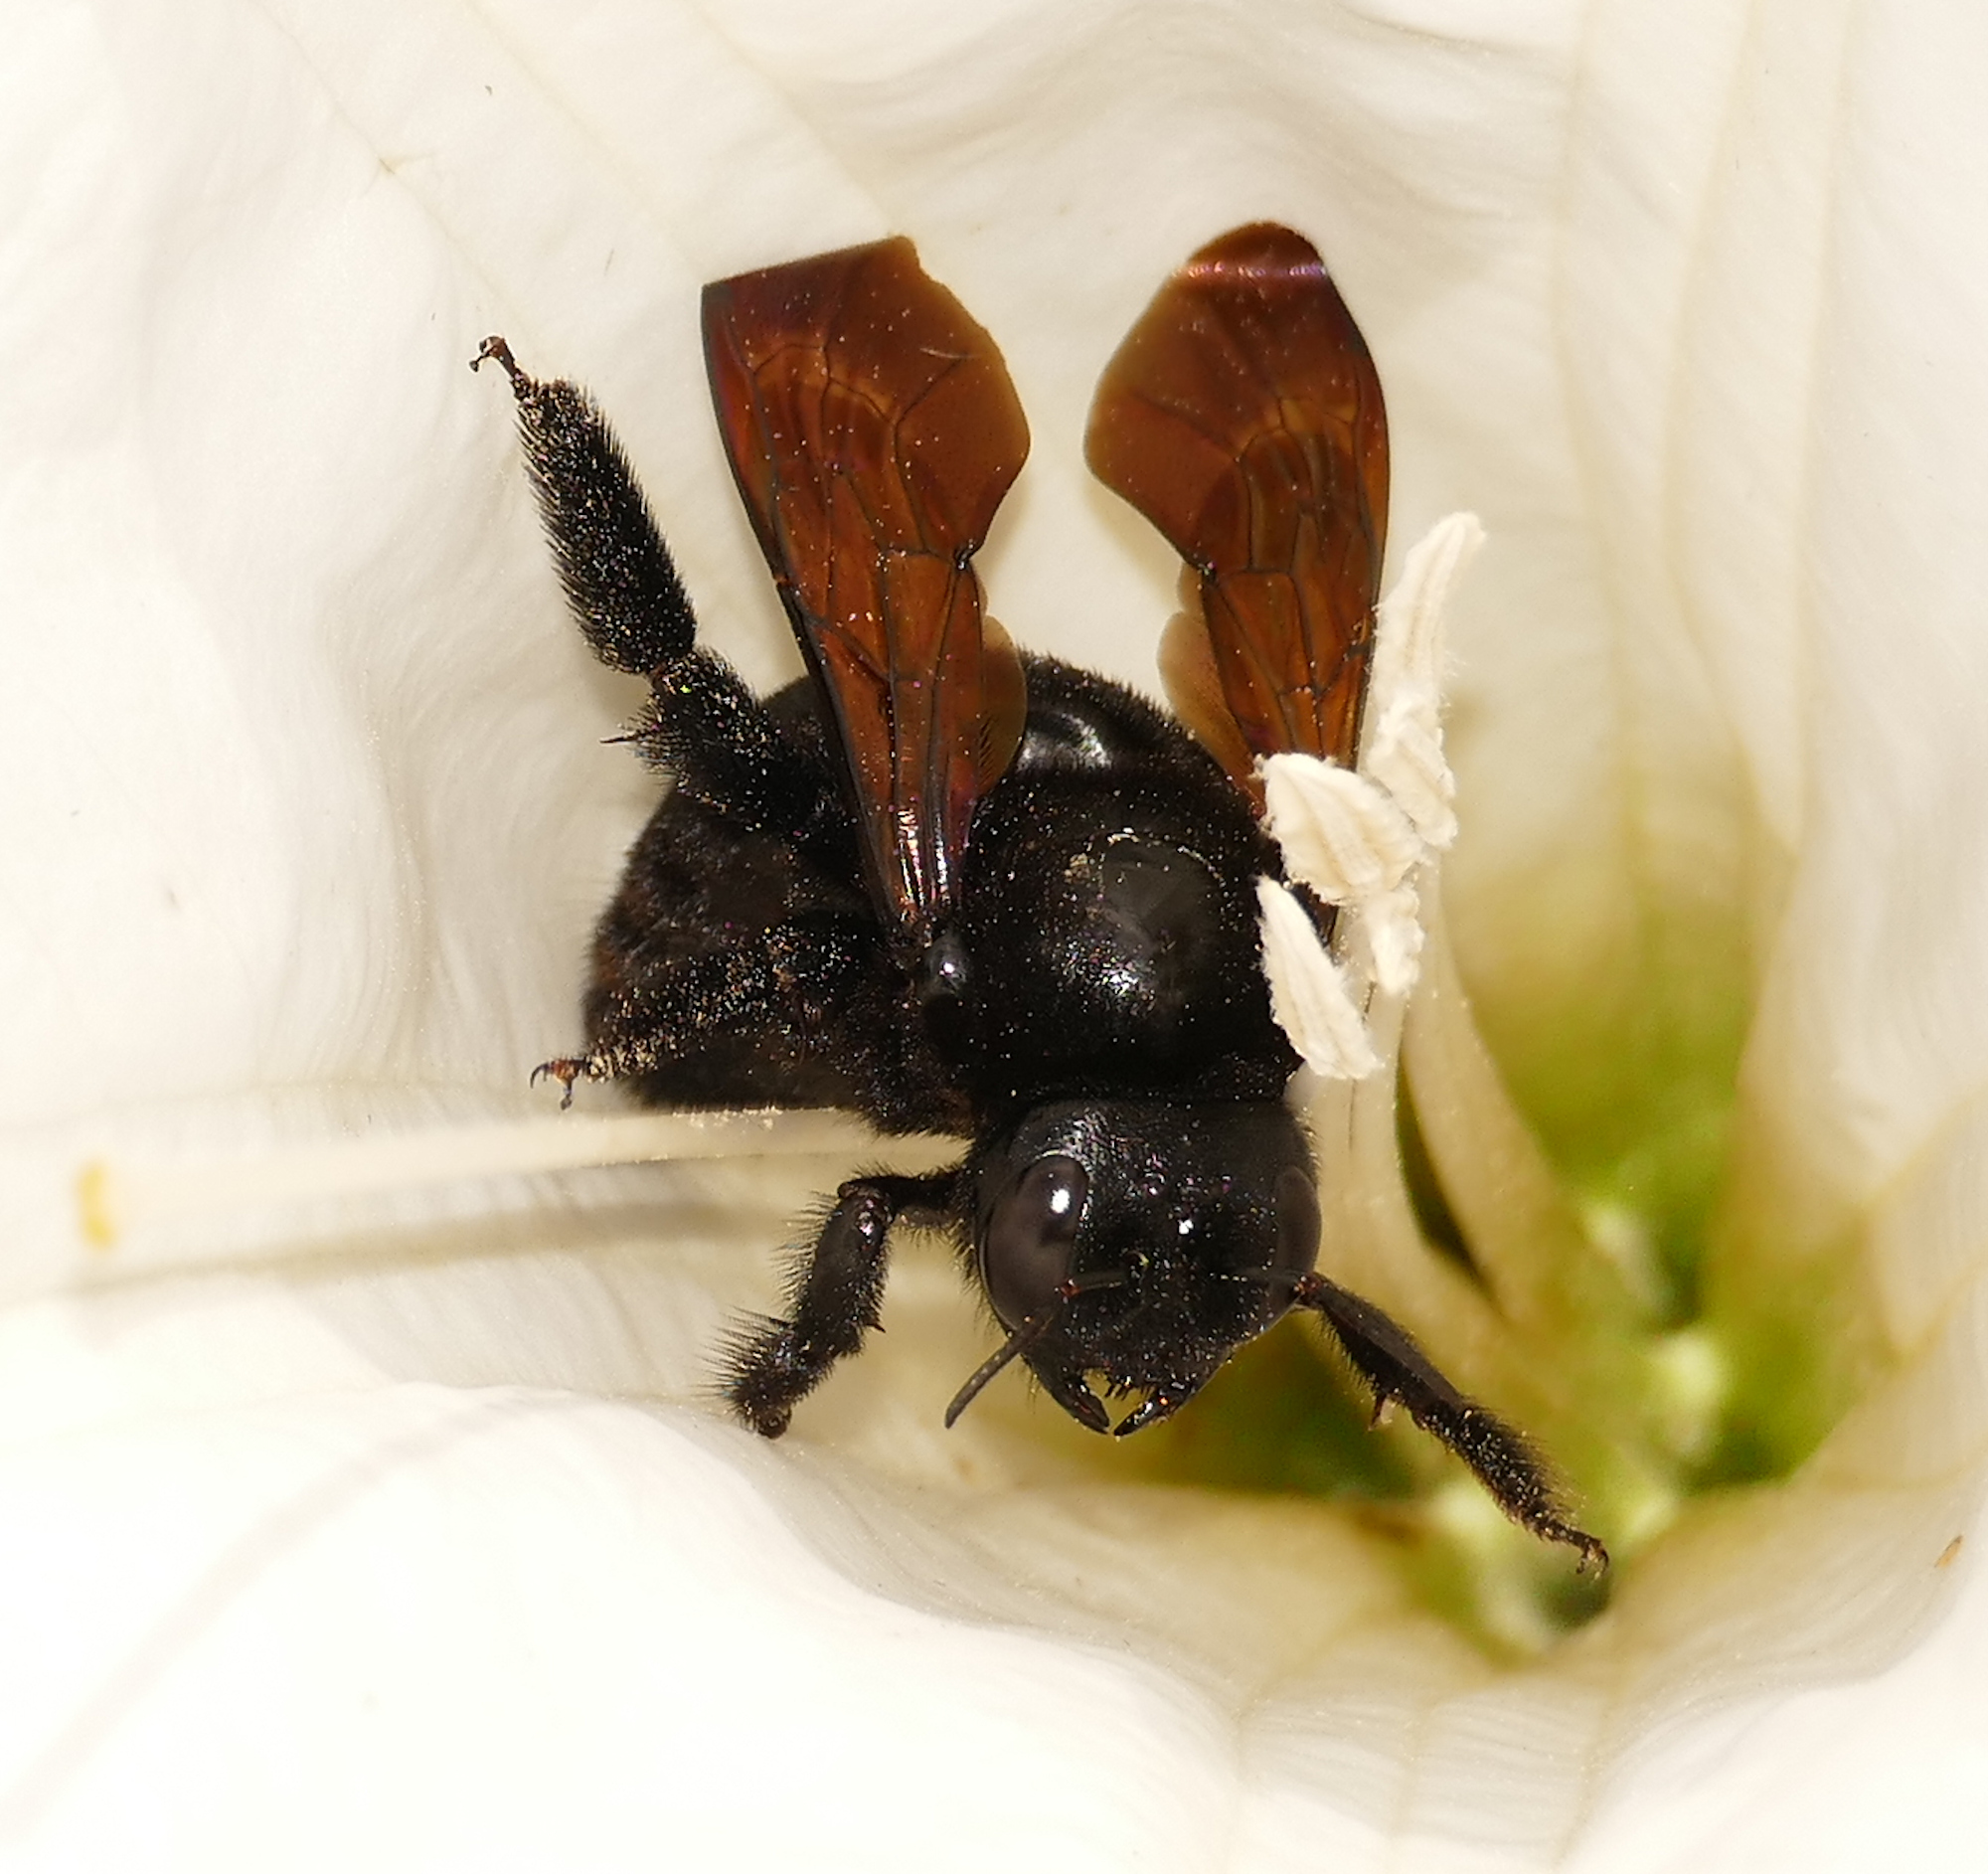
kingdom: Animalia
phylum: Arthropoda
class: Insecta
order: Hymenoptera
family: Apidae
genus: Xylocopa
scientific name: Xylocopa sonorina
